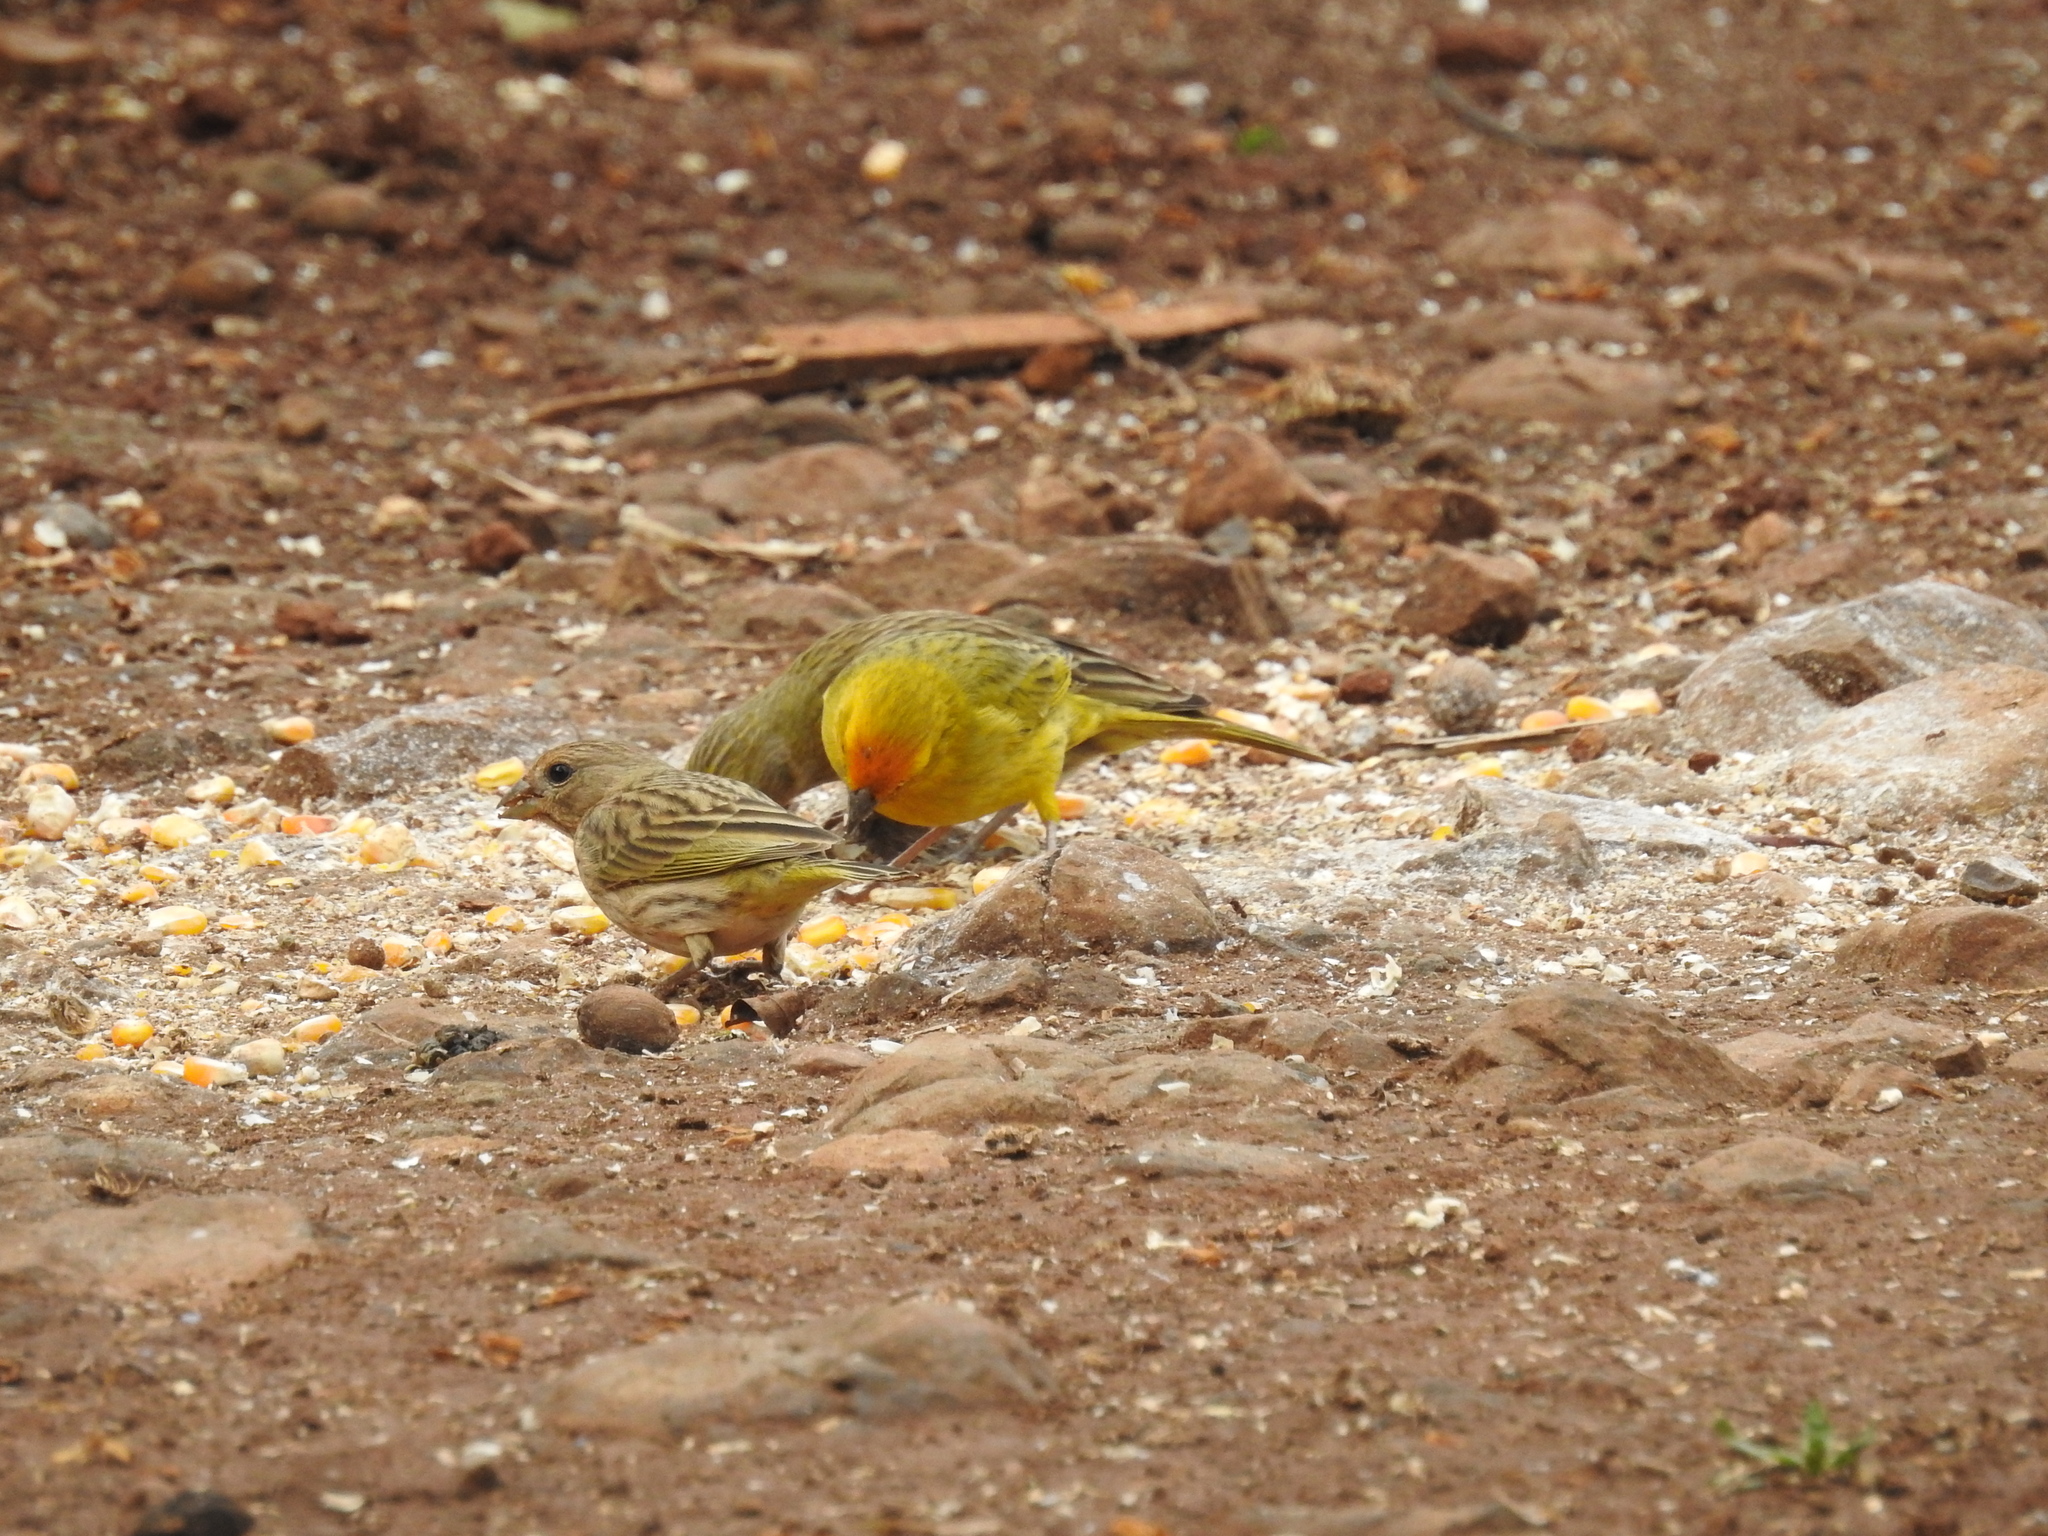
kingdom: Animalia
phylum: Chordata
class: Aves
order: Passeriformes
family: Thraupidae
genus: Sicalis
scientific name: Sicalis flaveola
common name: Saffron finch
